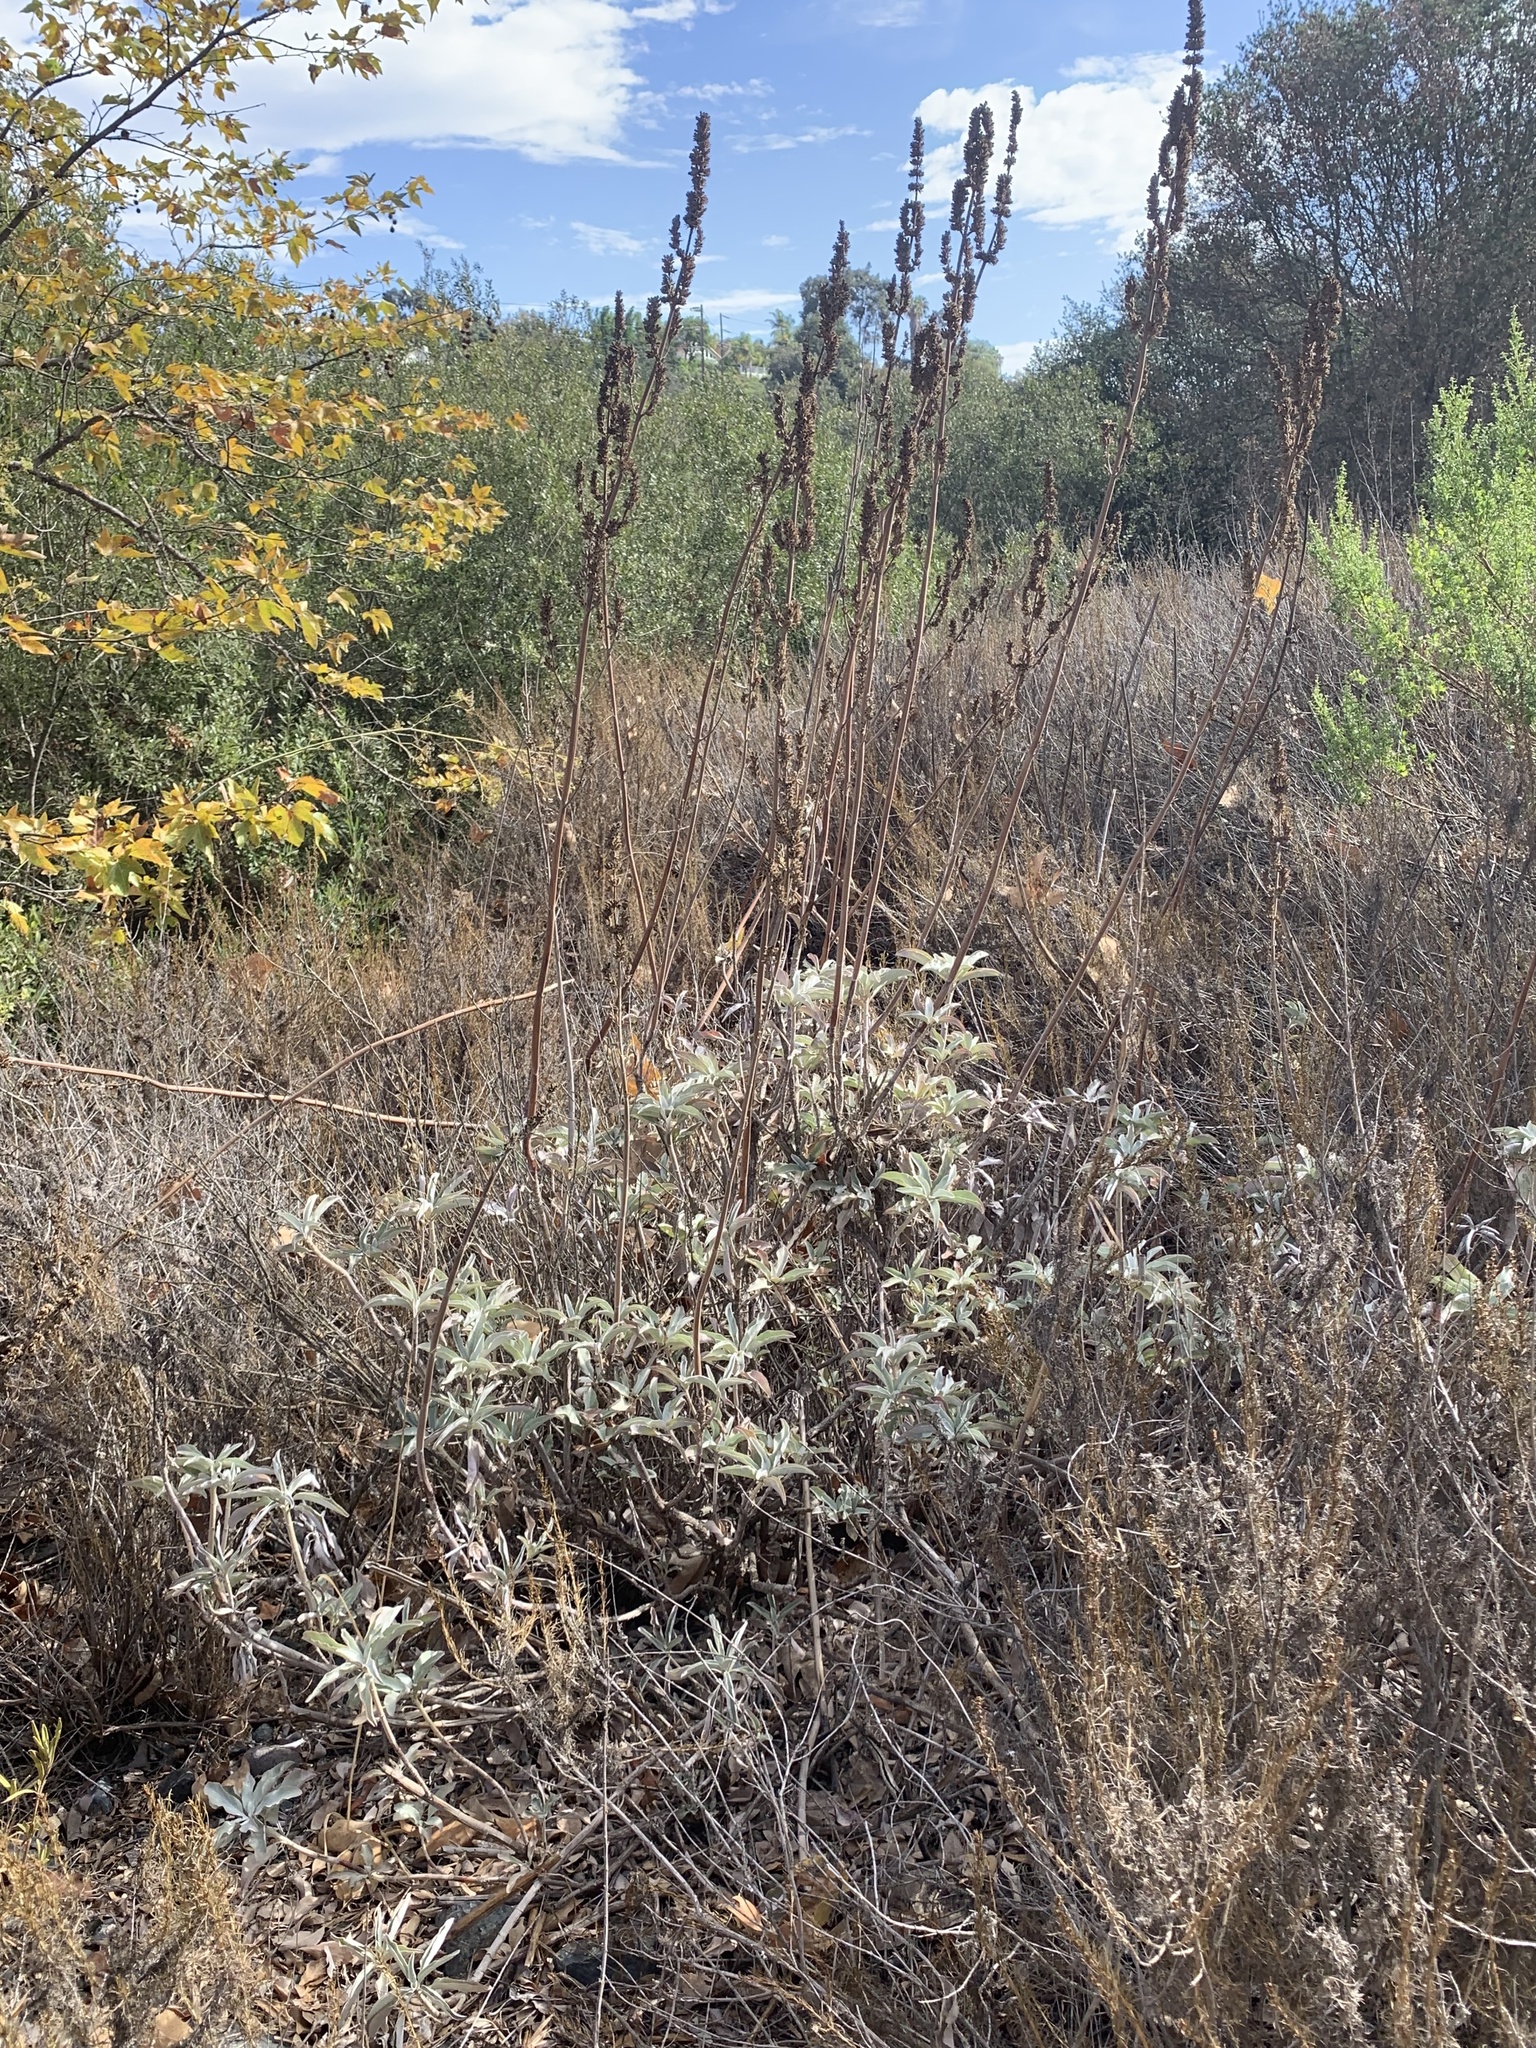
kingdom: Plantae
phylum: Tracheophyta
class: Magnoliopsida
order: Lamiales
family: Lamiaceae
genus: Salvia
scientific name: Salvia apiana
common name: White sage
